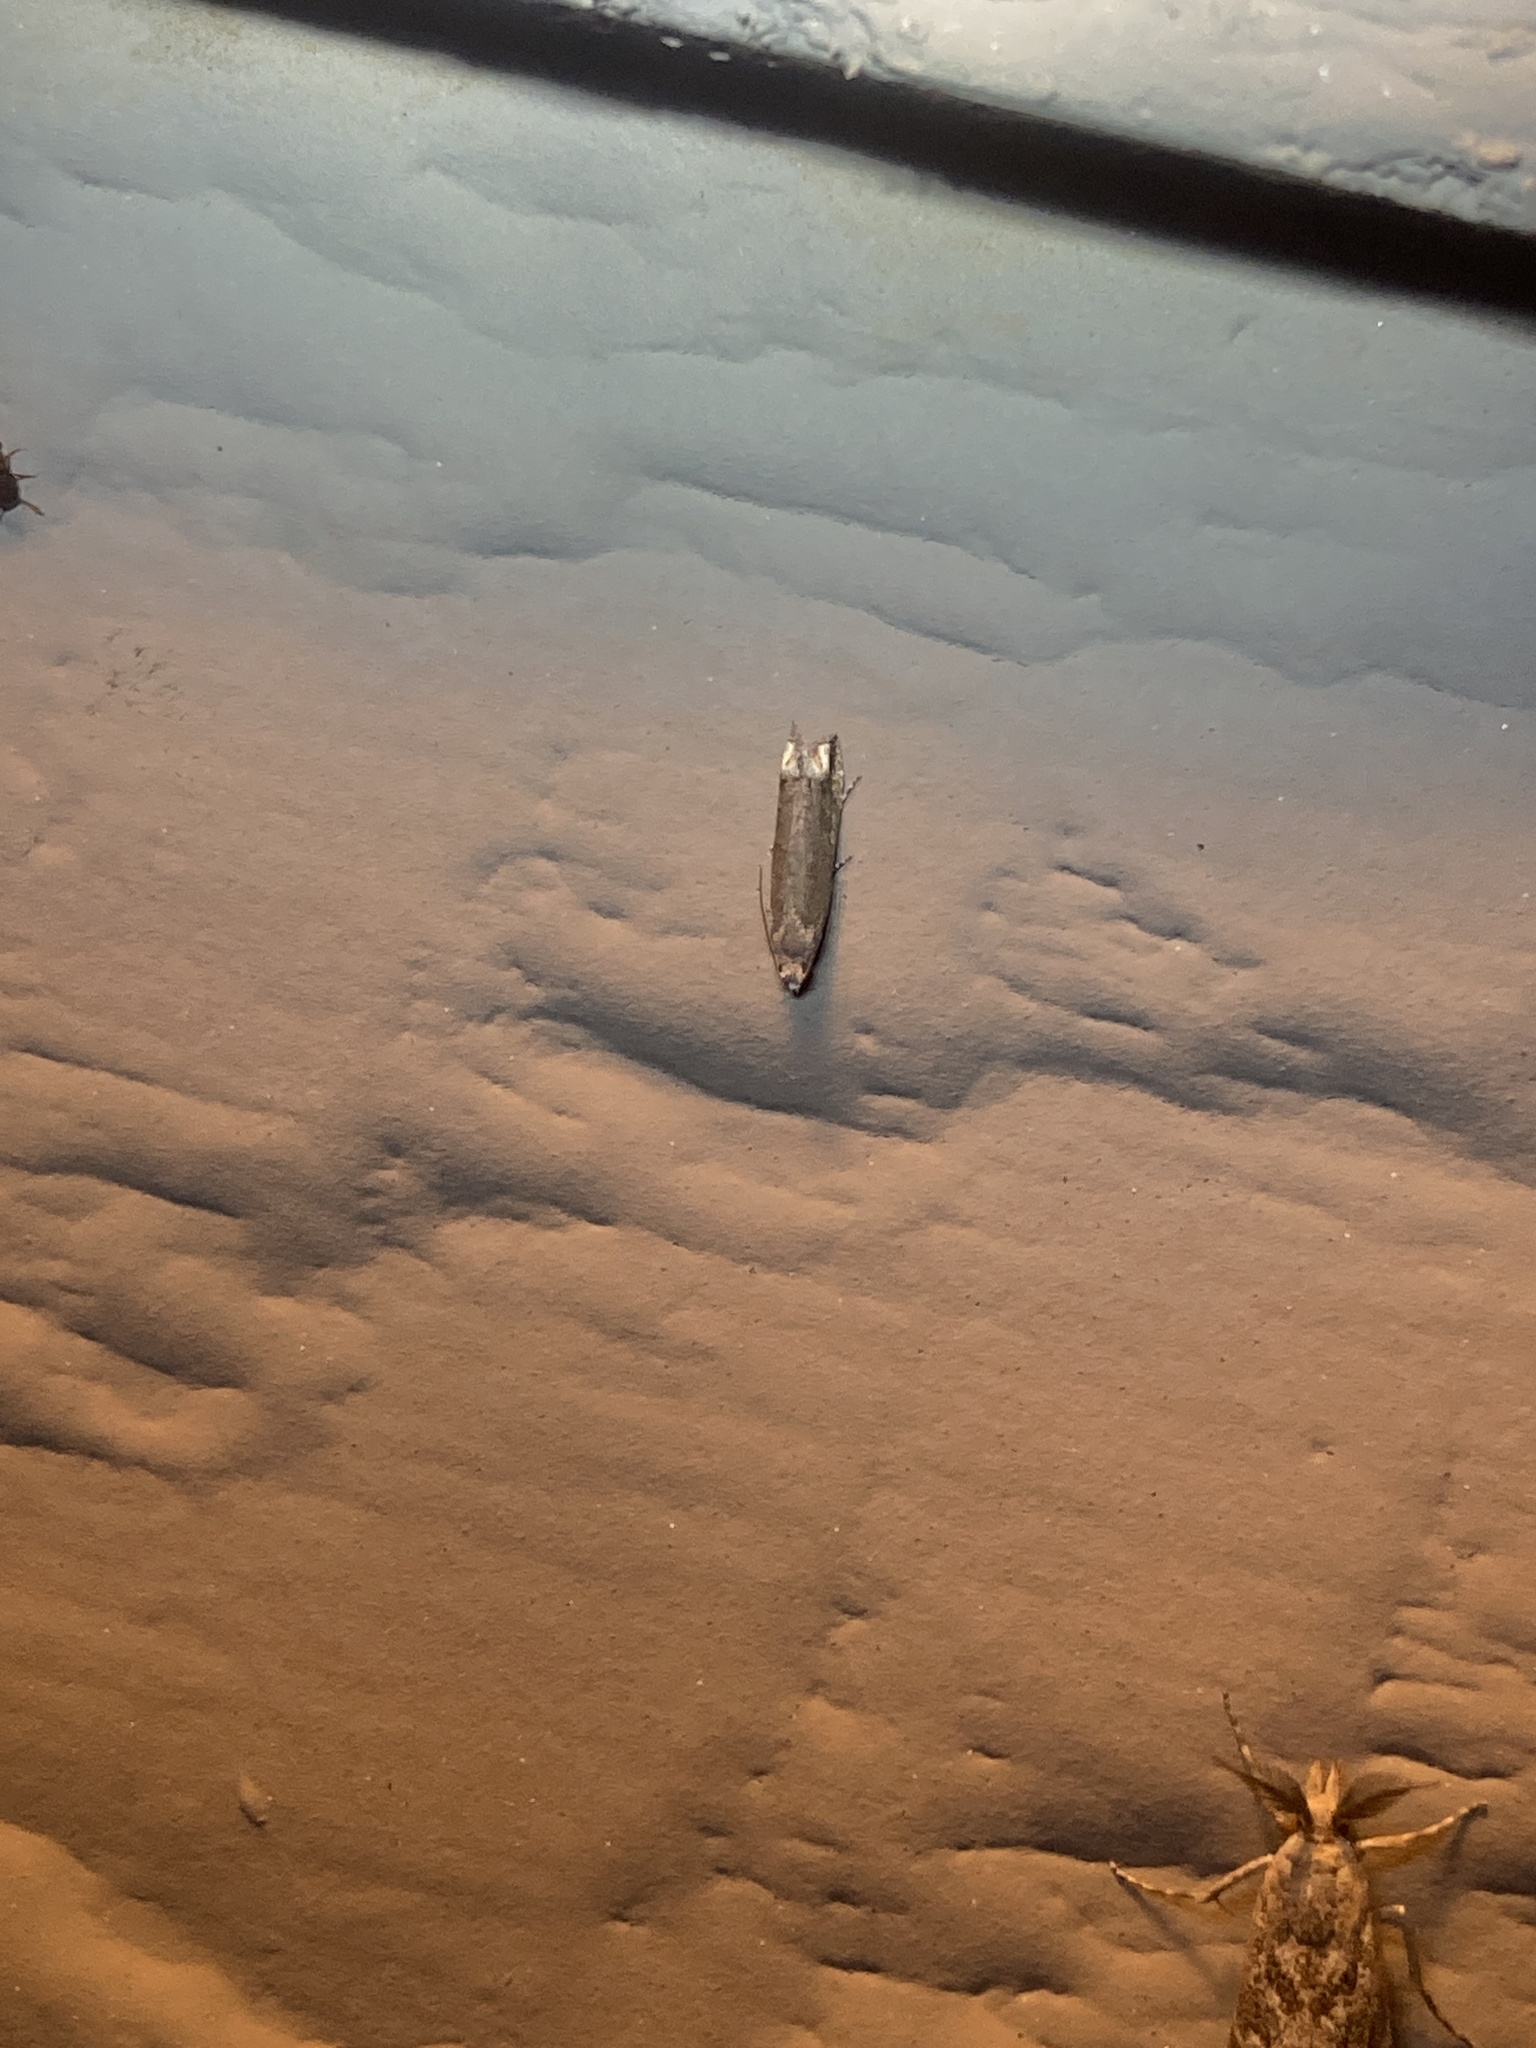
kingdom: Animalia
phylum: Arthropoda
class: Insecta
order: Lepidoptera
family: Tortricidae
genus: Epiblema
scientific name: Epiblema strenuana
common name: Ragweed borer moth
